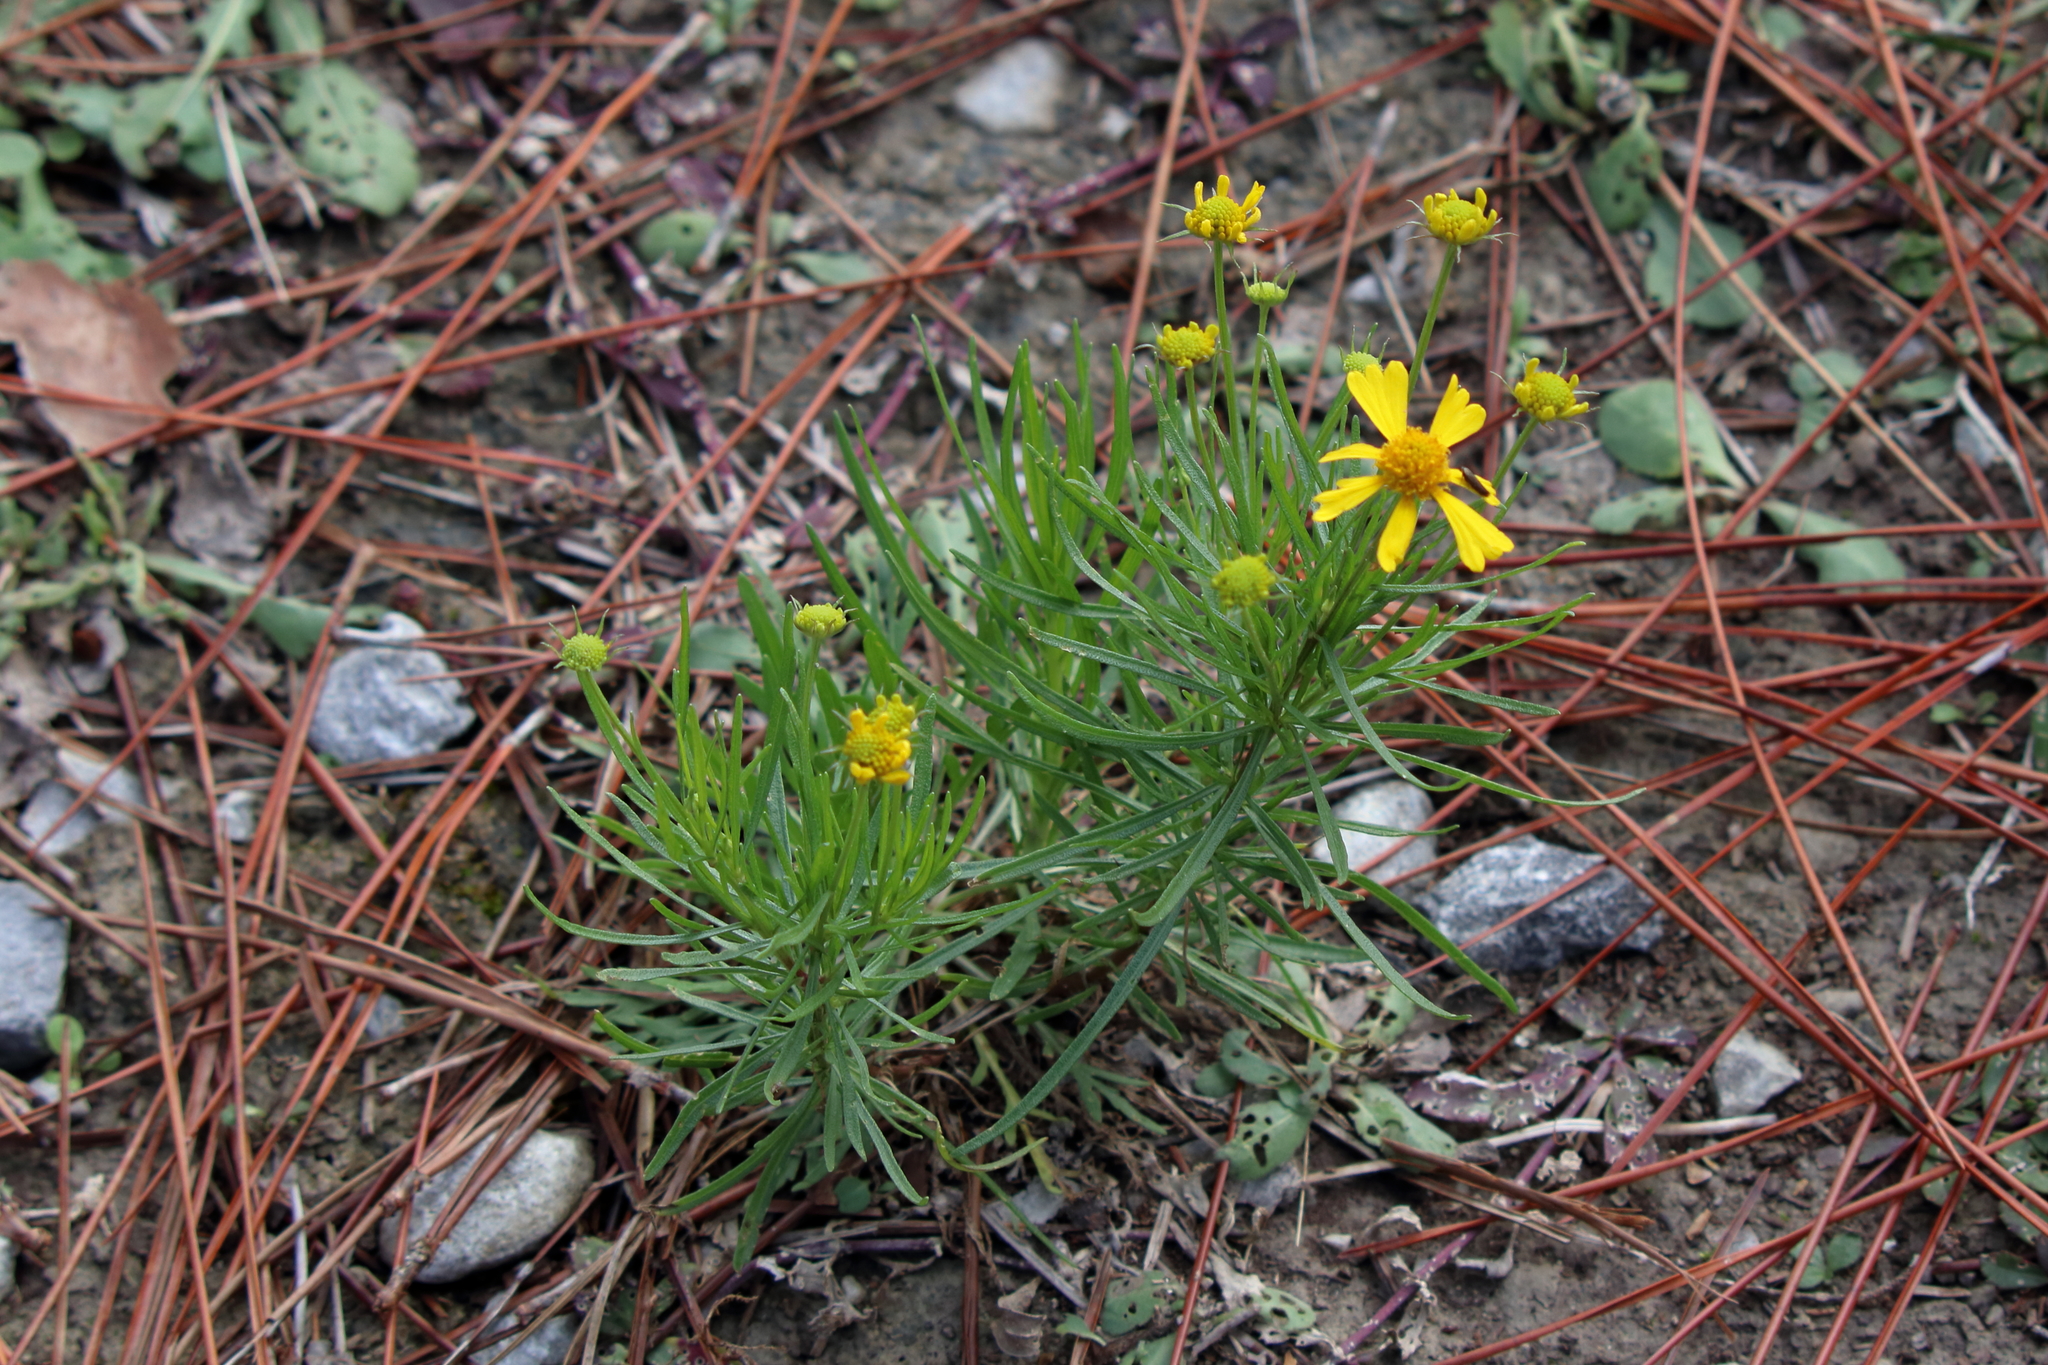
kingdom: Plantae
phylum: Tracheophyta
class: Magnoliopsida
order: Asterales
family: Asteraceae
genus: Helenium
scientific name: Helenium amarum
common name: Bitter sneezeweed
